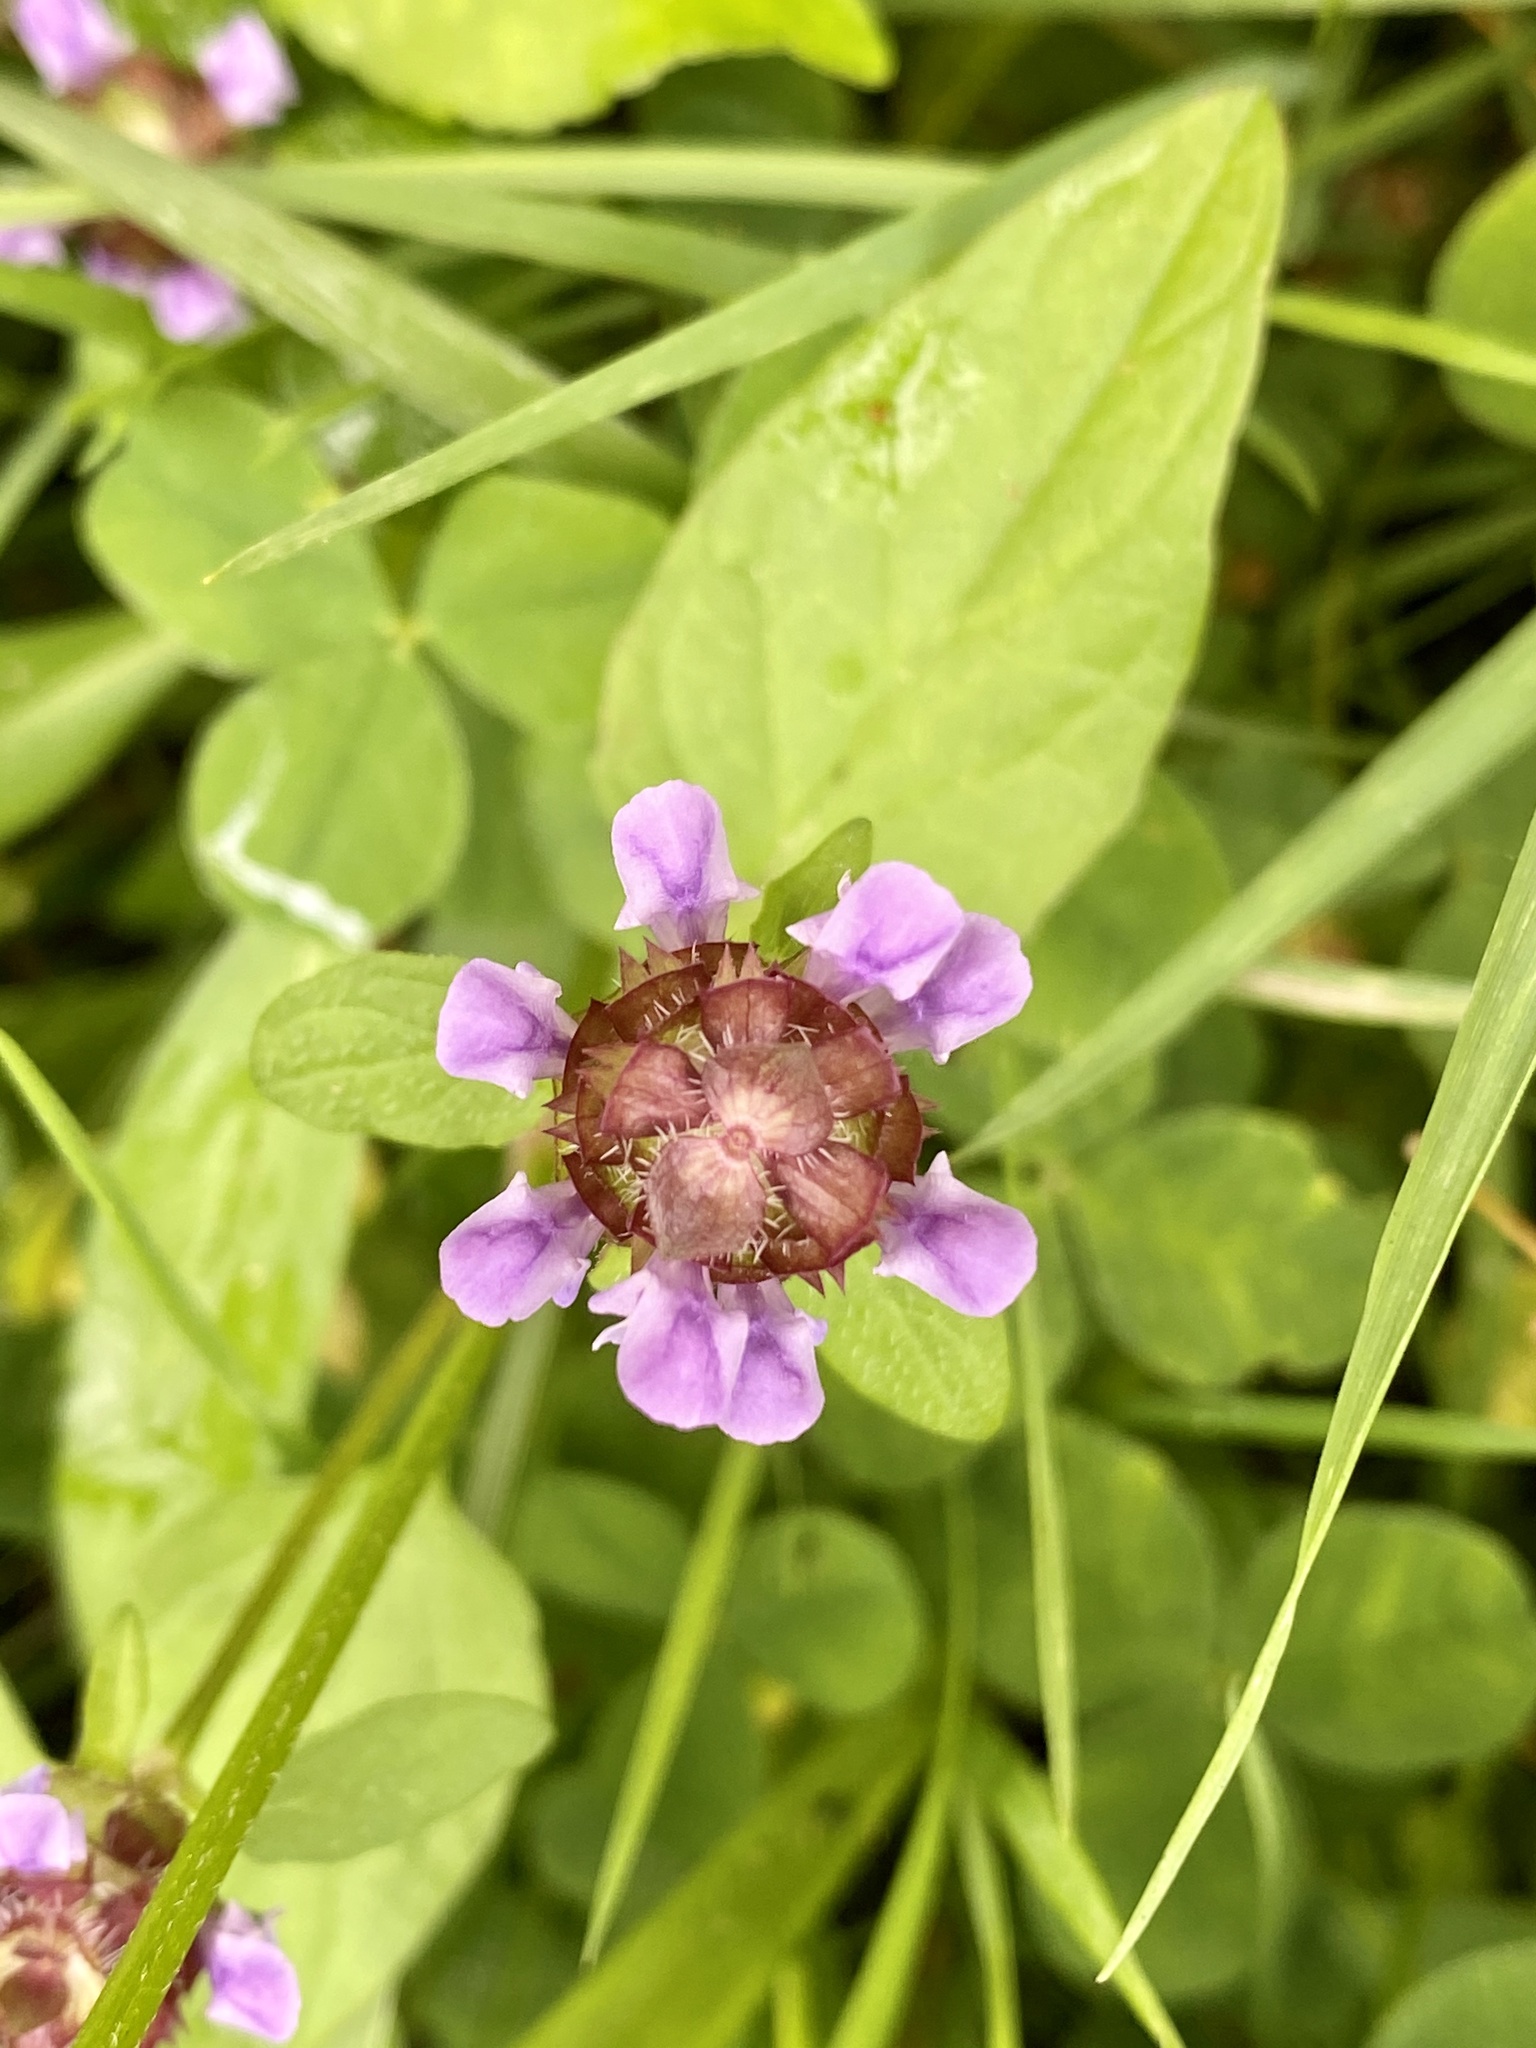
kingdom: Plantae
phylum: Tracheophyta
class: Magnoliopsida
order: Lamiales
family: Lamiaceae
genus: Prunella
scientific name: Prunella vulgaris
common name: Heal-all
